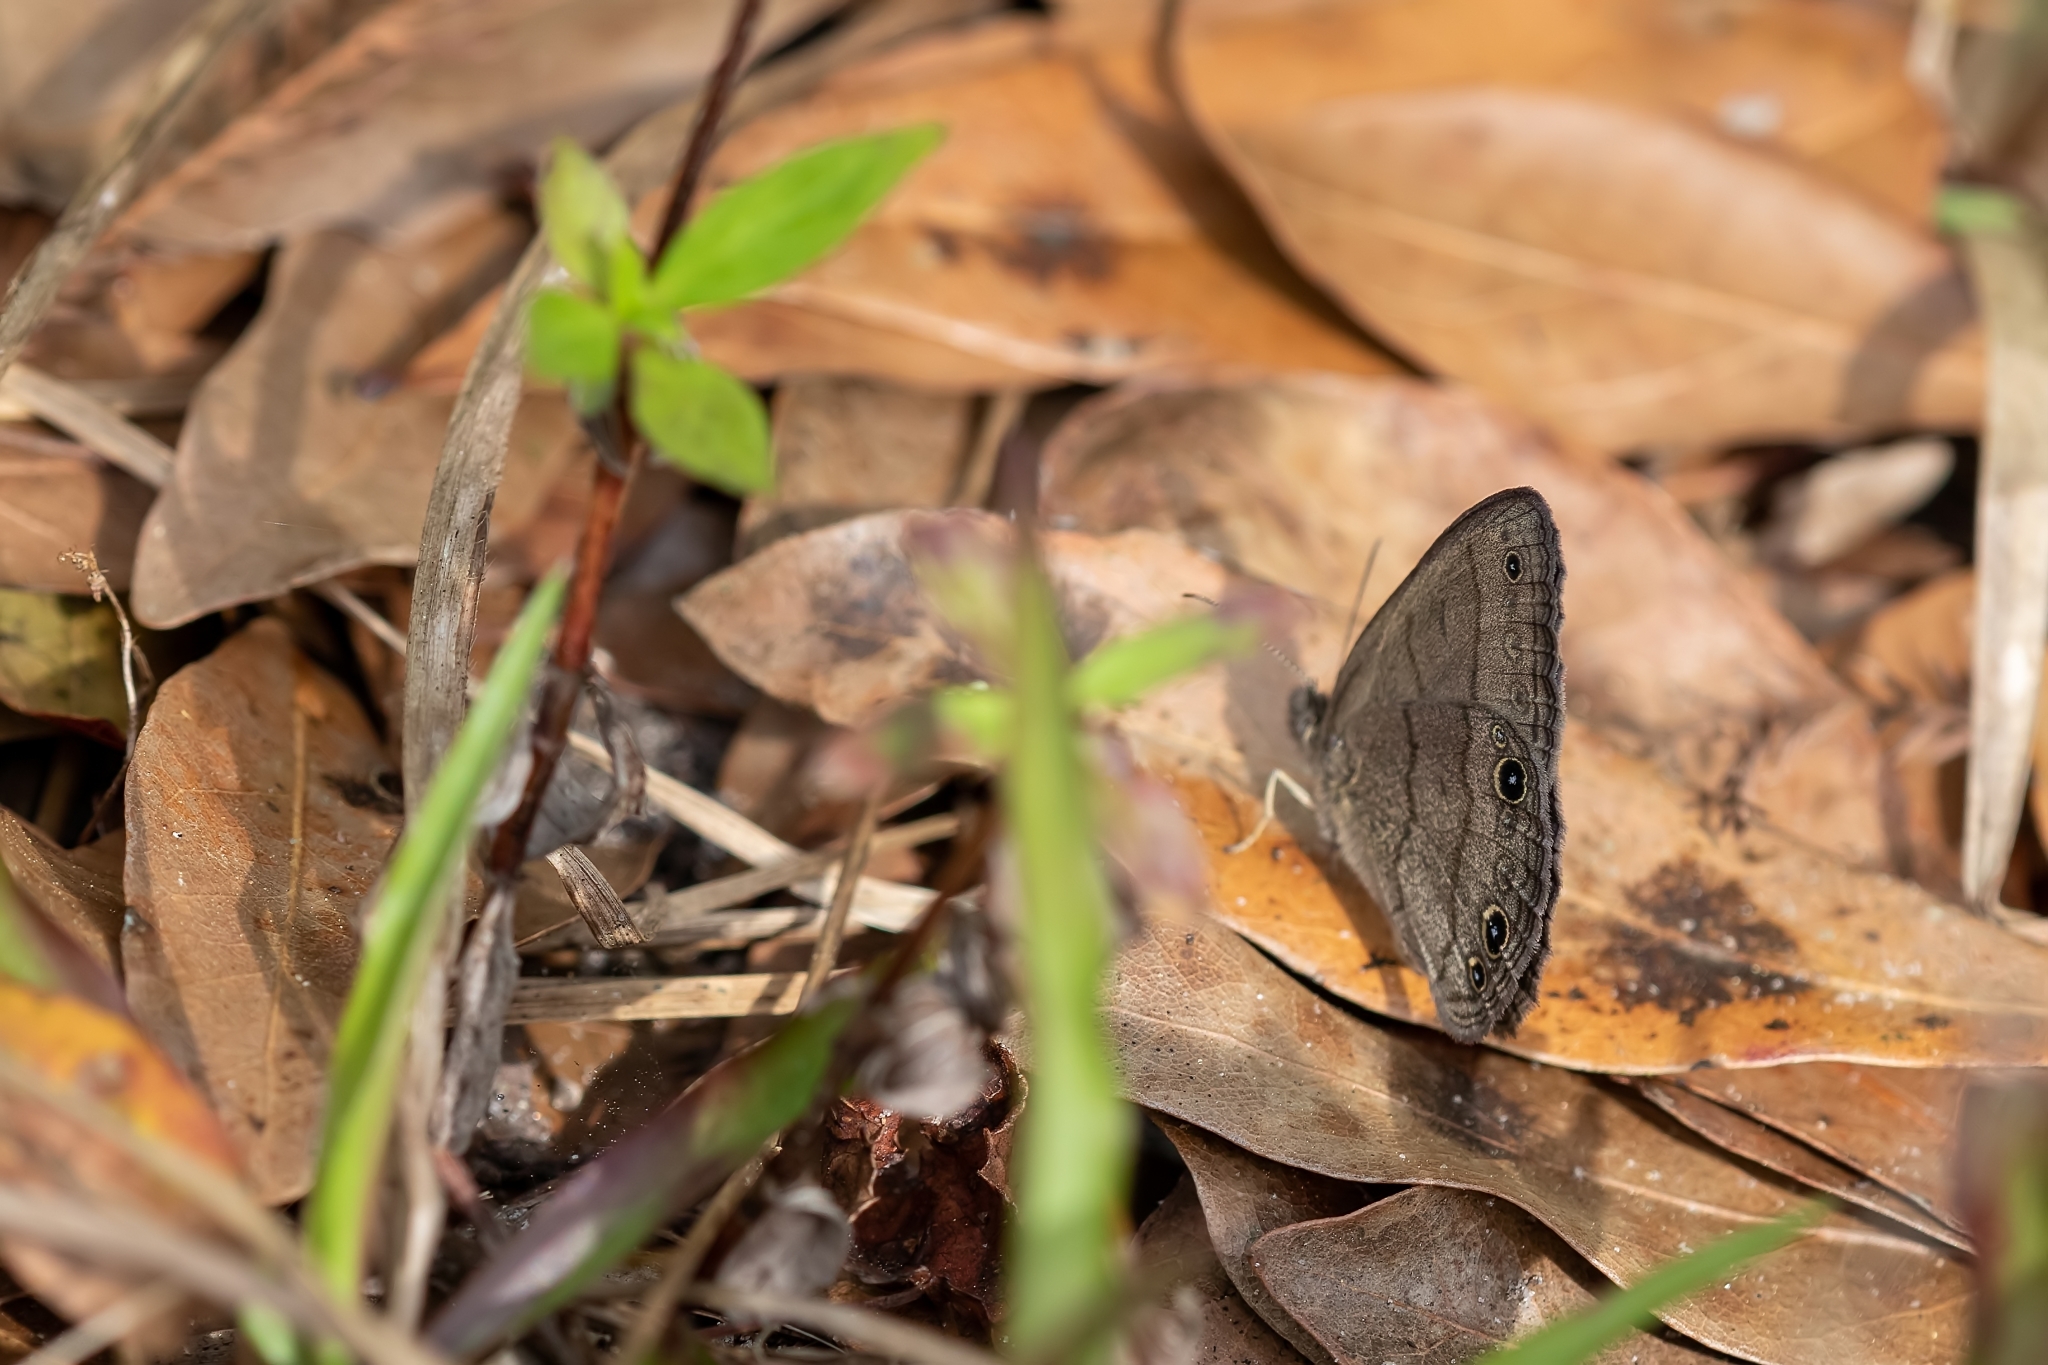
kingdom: Animalia
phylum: Arthropoda
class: Insecta
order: Lepidoptera
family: Nymphalidae
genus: Hermeuptychia
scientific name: Hermeuptychia hermes
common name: Hermes satyr
